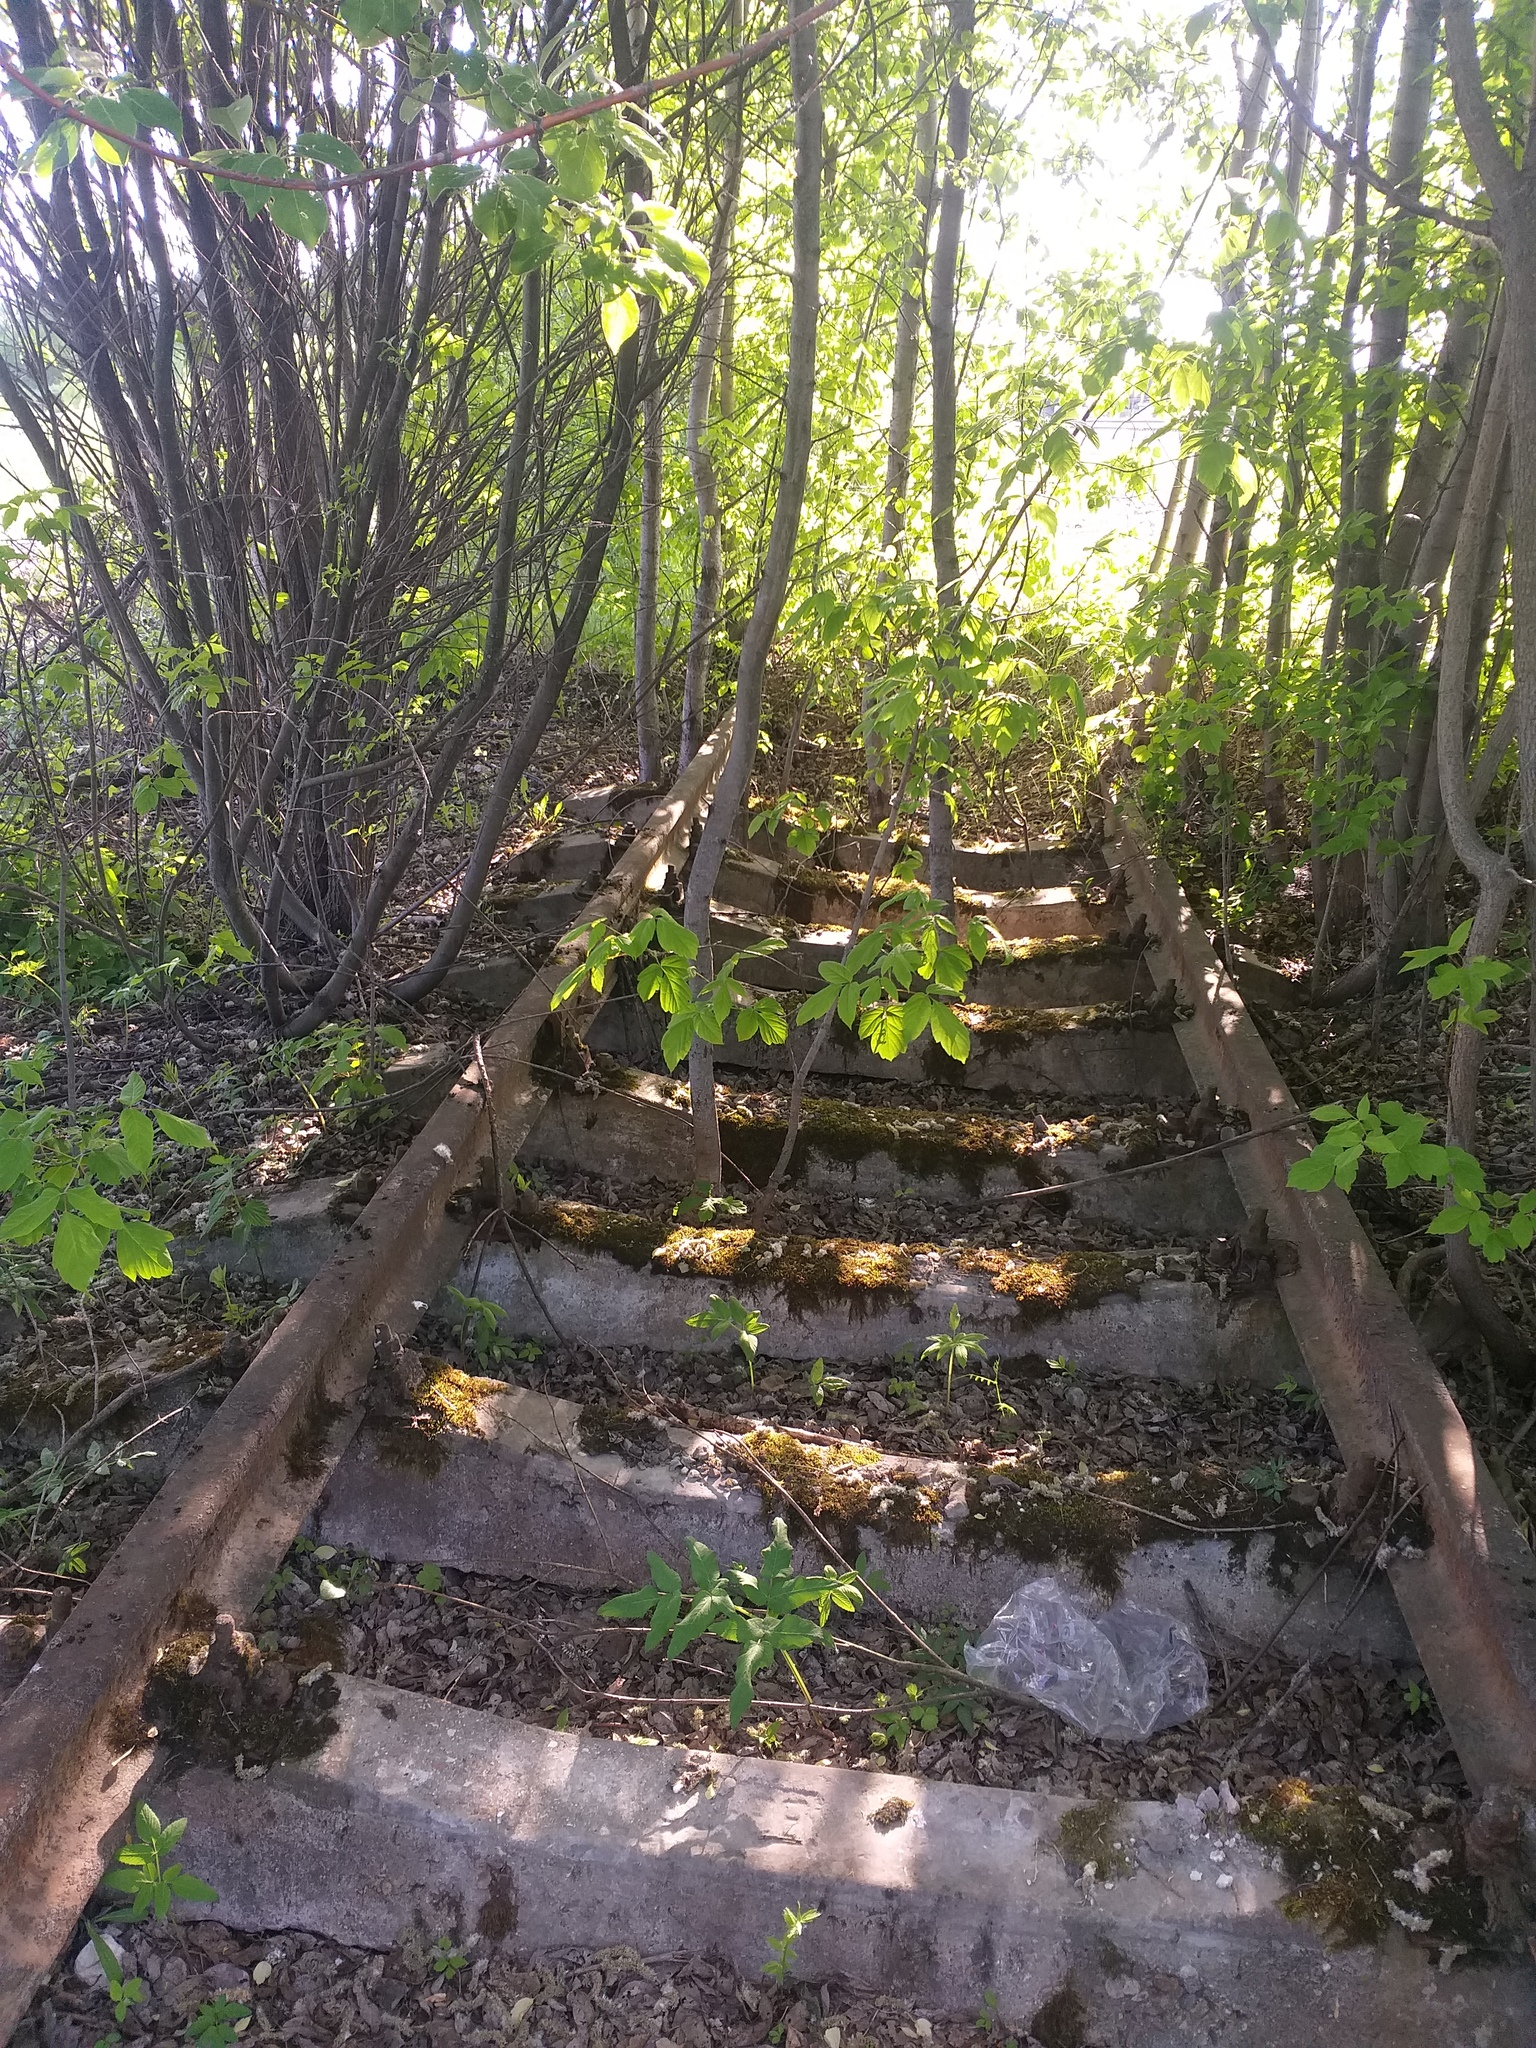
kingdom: Plantae
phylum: Tracheophyta
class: Magnoliopsida
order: Sapindales
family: Sapindaceae
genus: Acer
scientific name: Acer negundo
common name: Ashleaf maple
